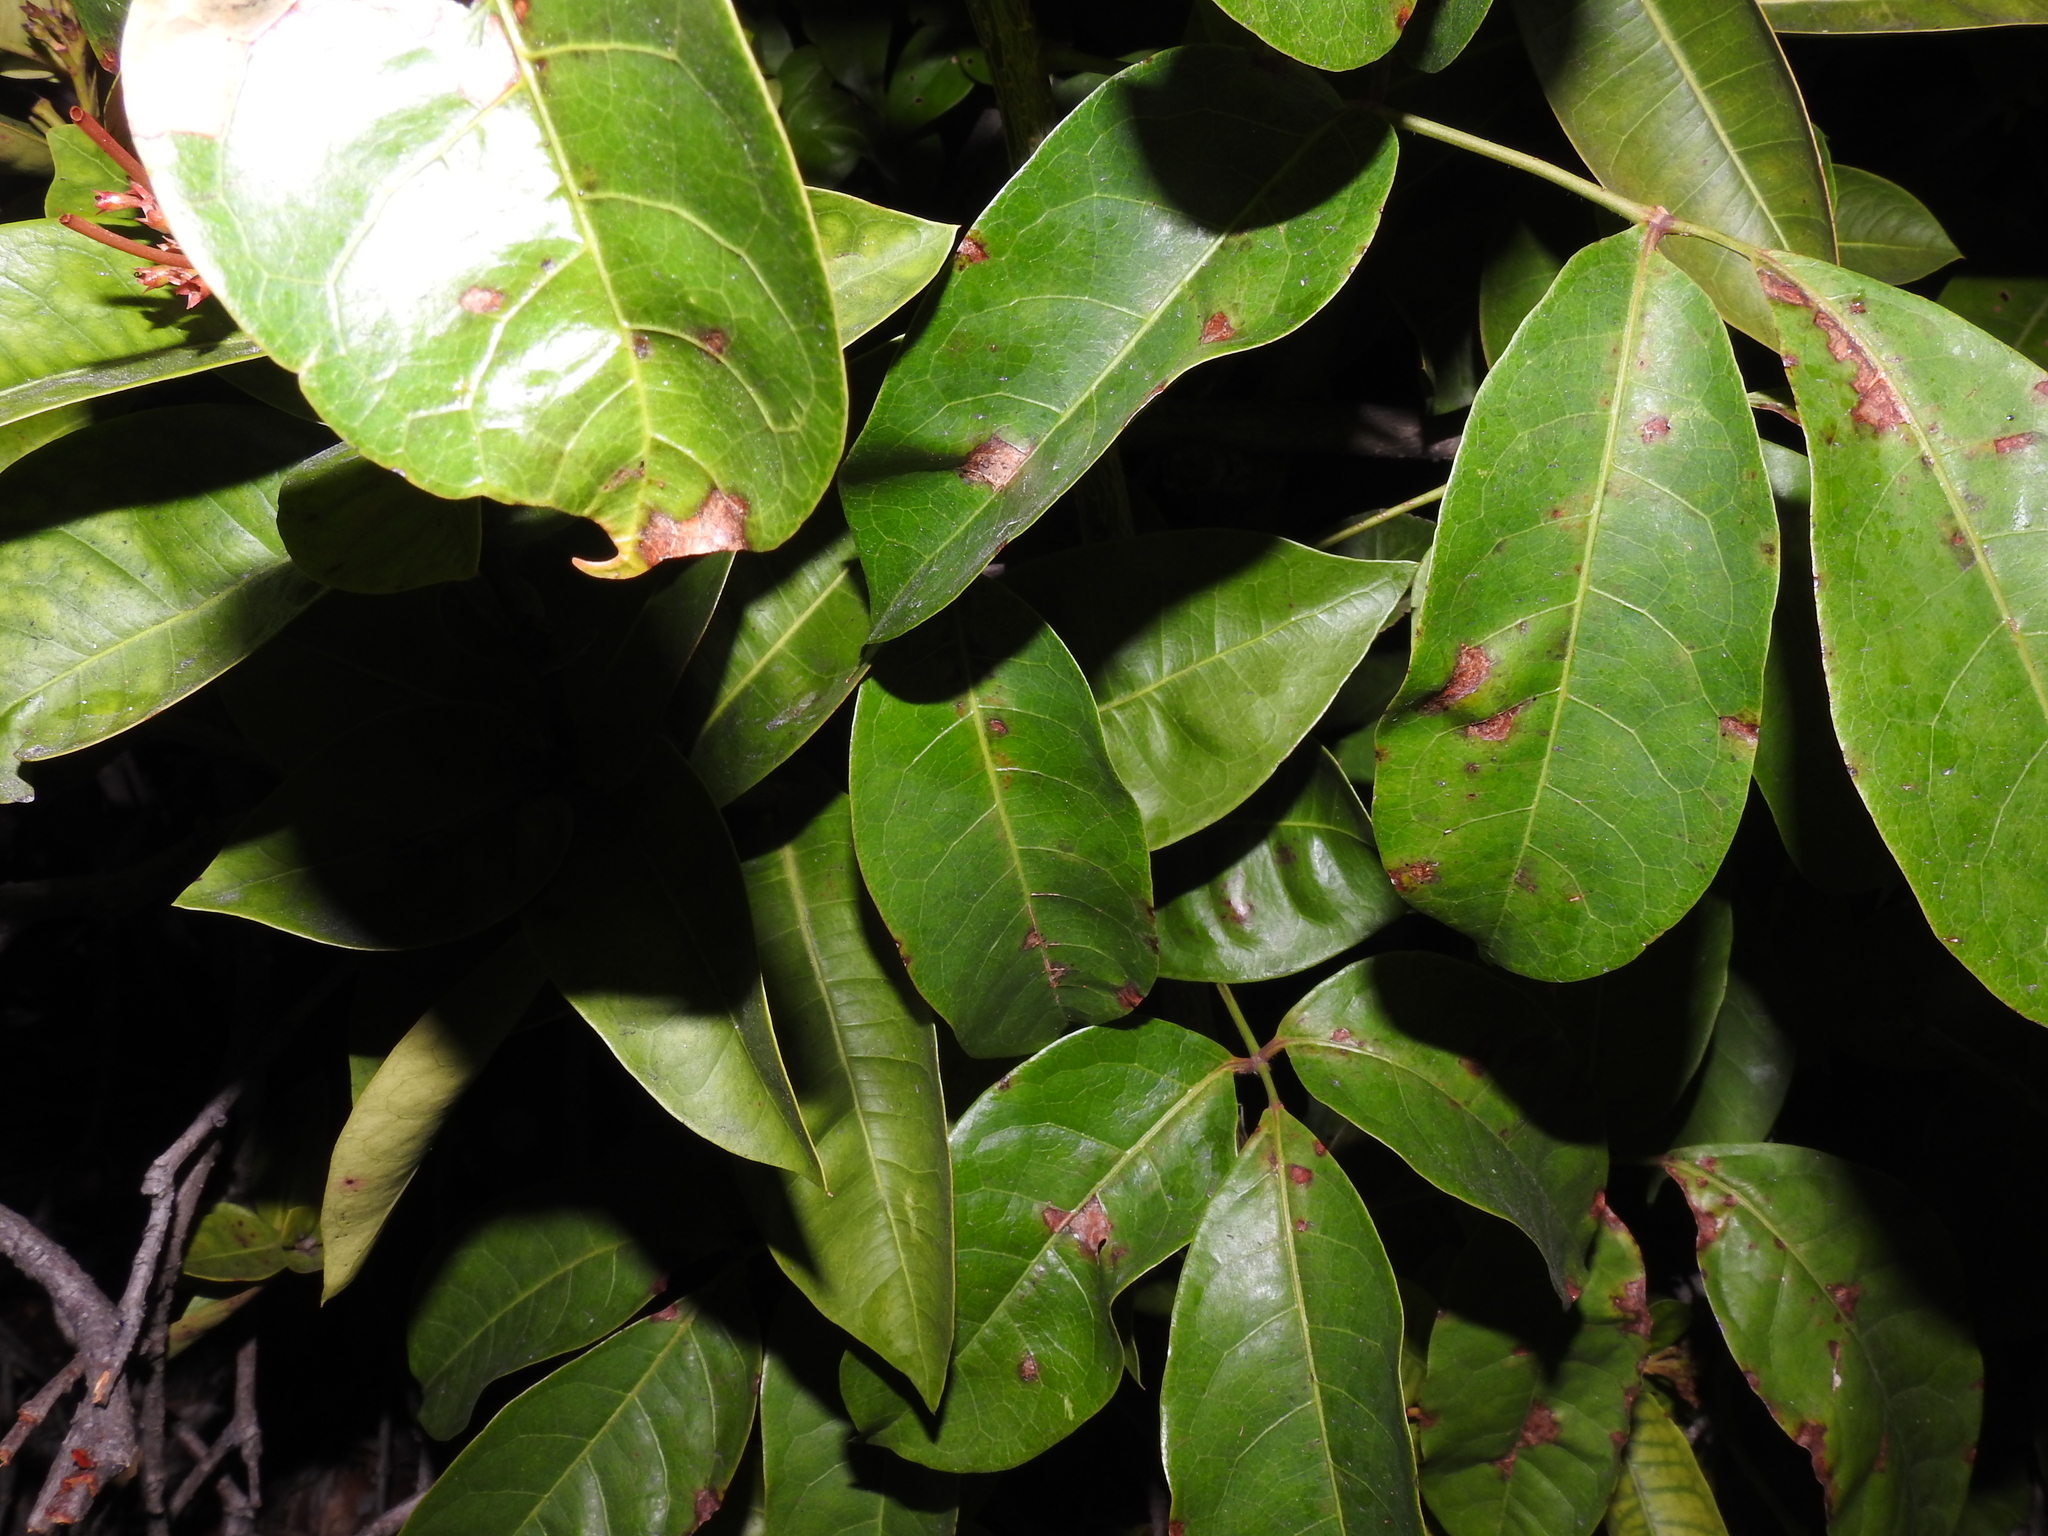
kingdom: Plantae
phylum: Tracheophyta
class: Magnoliopsida
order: Sapindales
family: Burseraceae
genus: Bursera
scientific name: Bursera simaruba
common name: Turpentine tree
